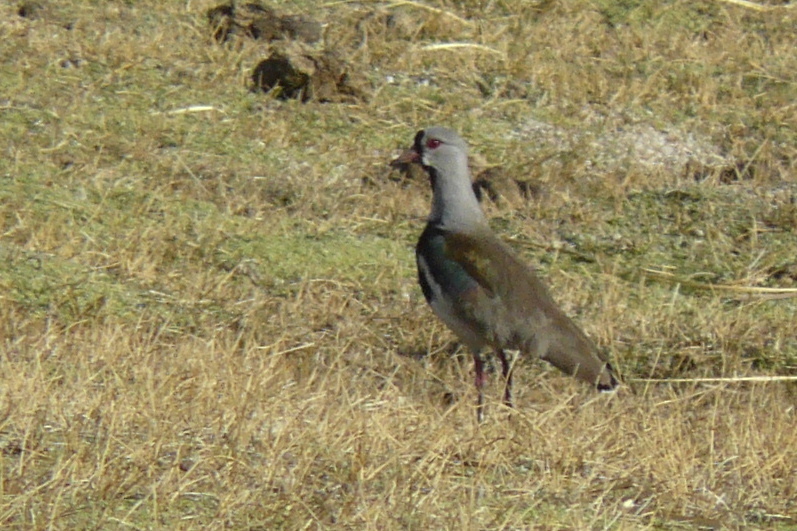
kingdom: Animalia
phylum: Chordata
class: Aves
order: Charadriiformes
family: Charadriidae
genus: Vanellus
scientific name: Vanellus chilensis
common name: Southern lapwing
